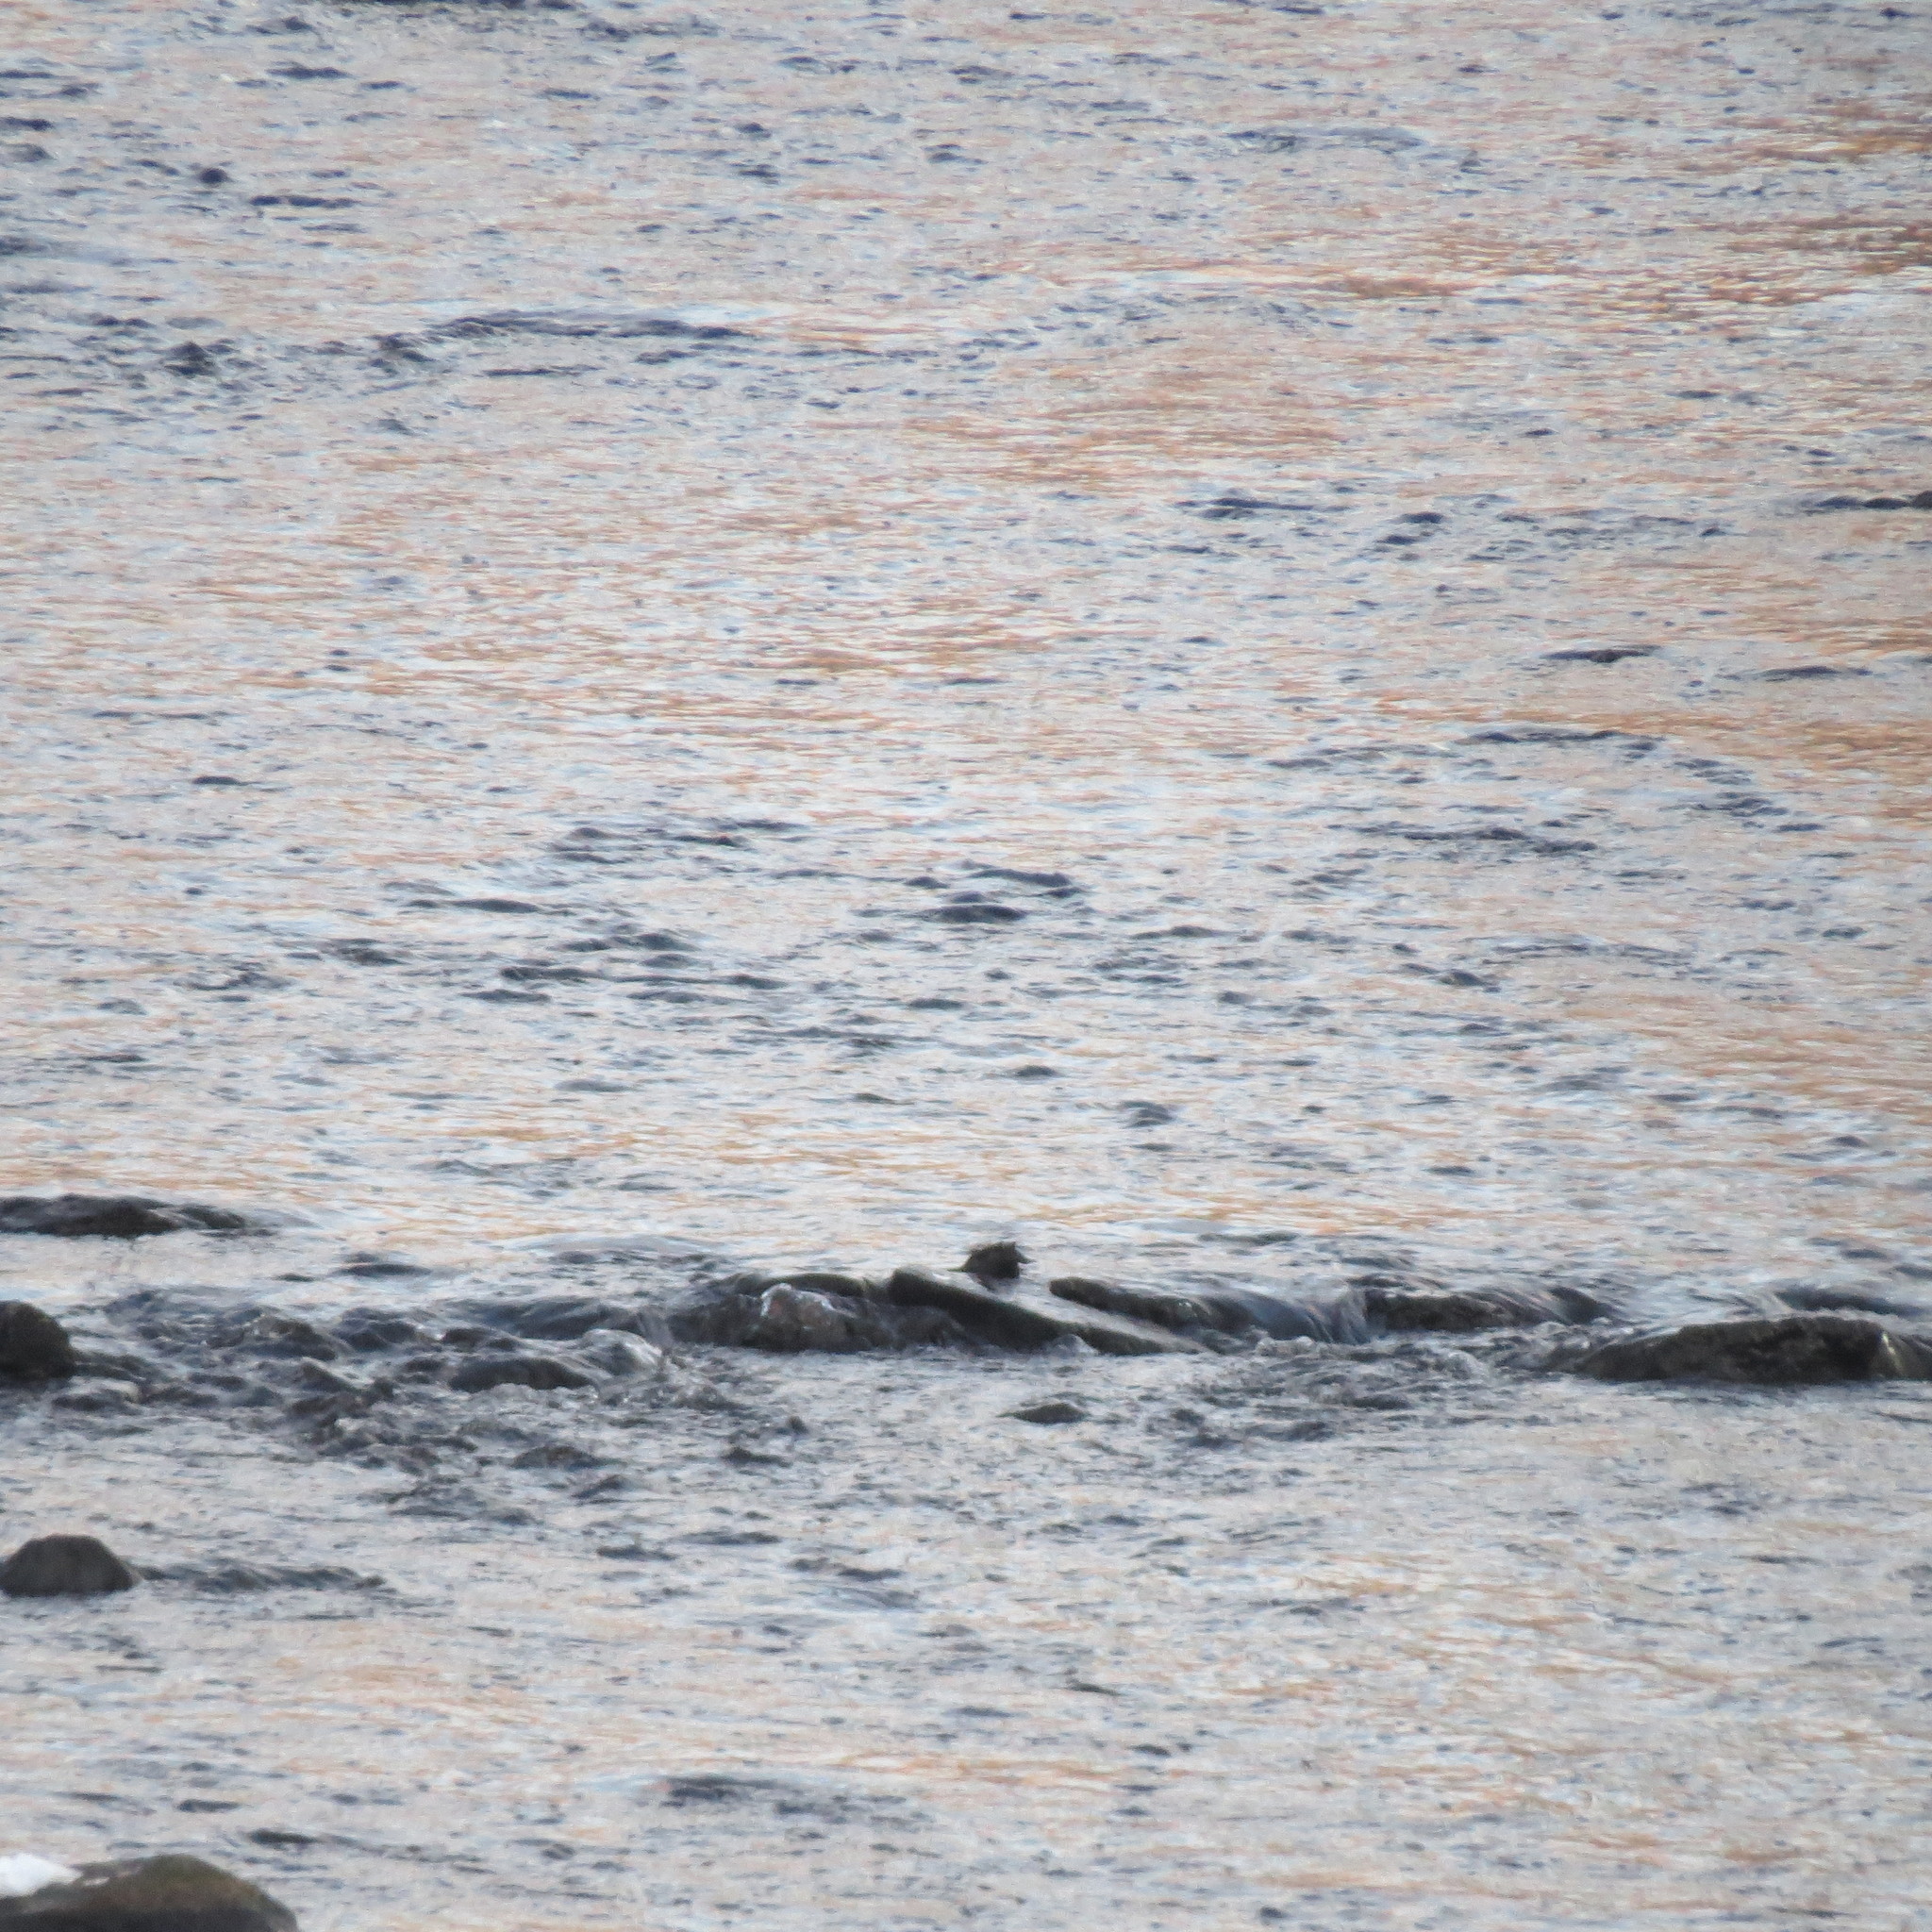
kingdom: Animalia
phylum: Chordata
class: Aves
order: Passeriformes
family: Cinclidae
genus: Cinclus
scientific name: Cinclus cinclus
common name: White-throated dipper
